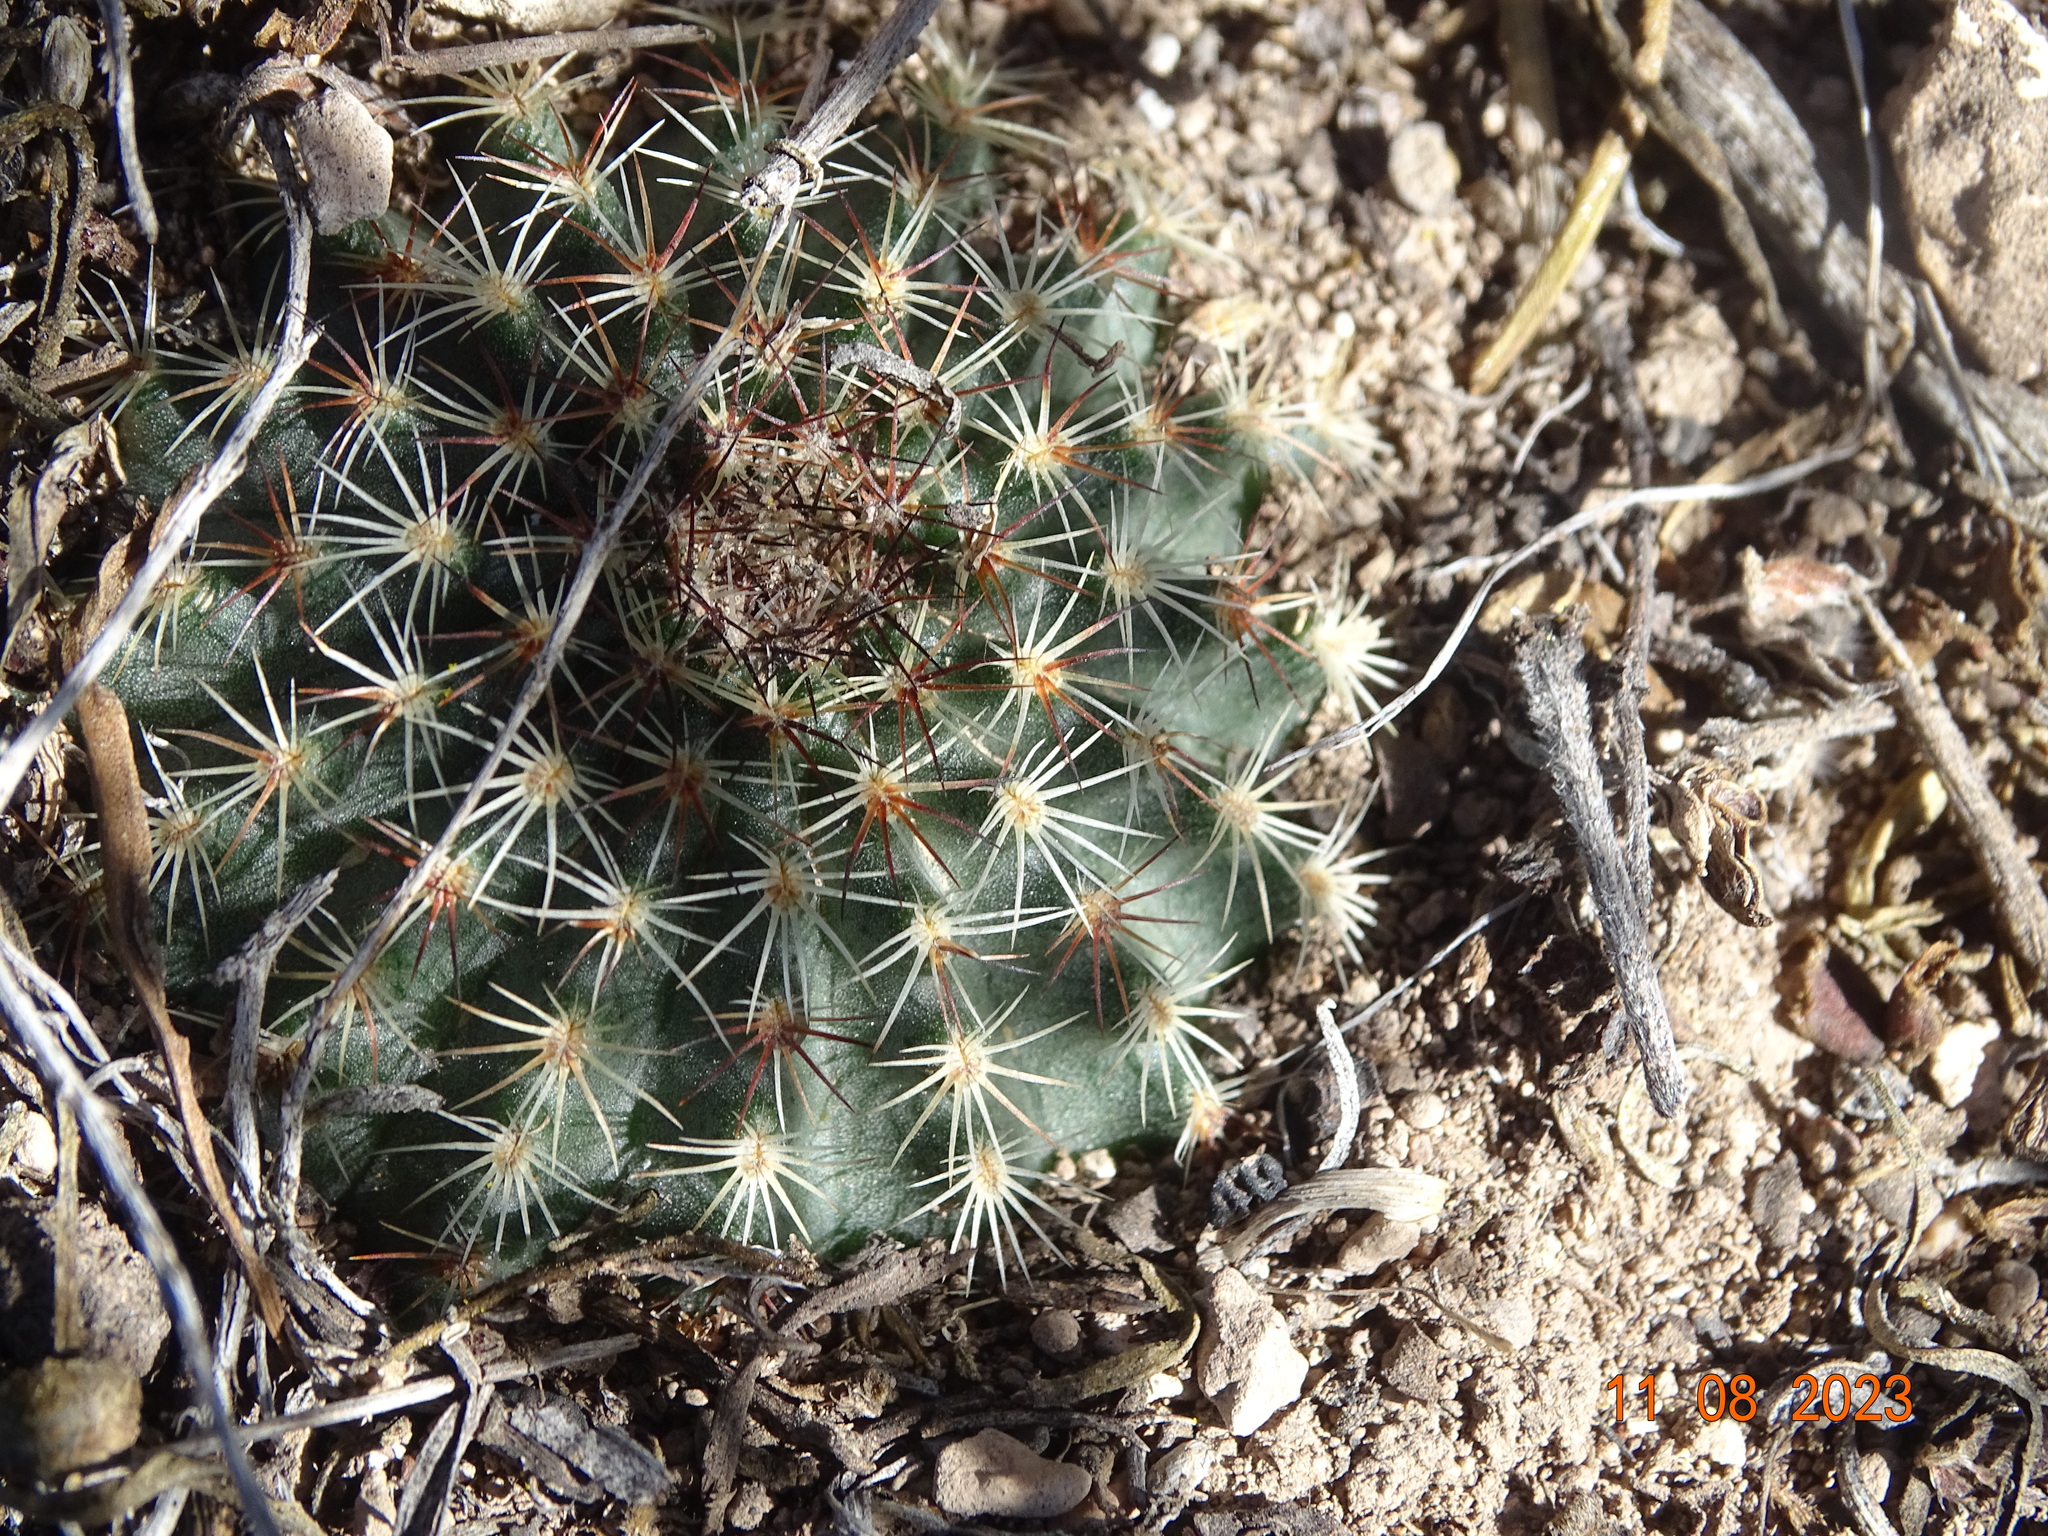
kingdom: Plantae
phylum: Tracheophyta
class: Magnoliopsida
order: Caryophyllales
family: Cactaceae
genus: Echinocereus
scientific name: Echinocereus sharpii
